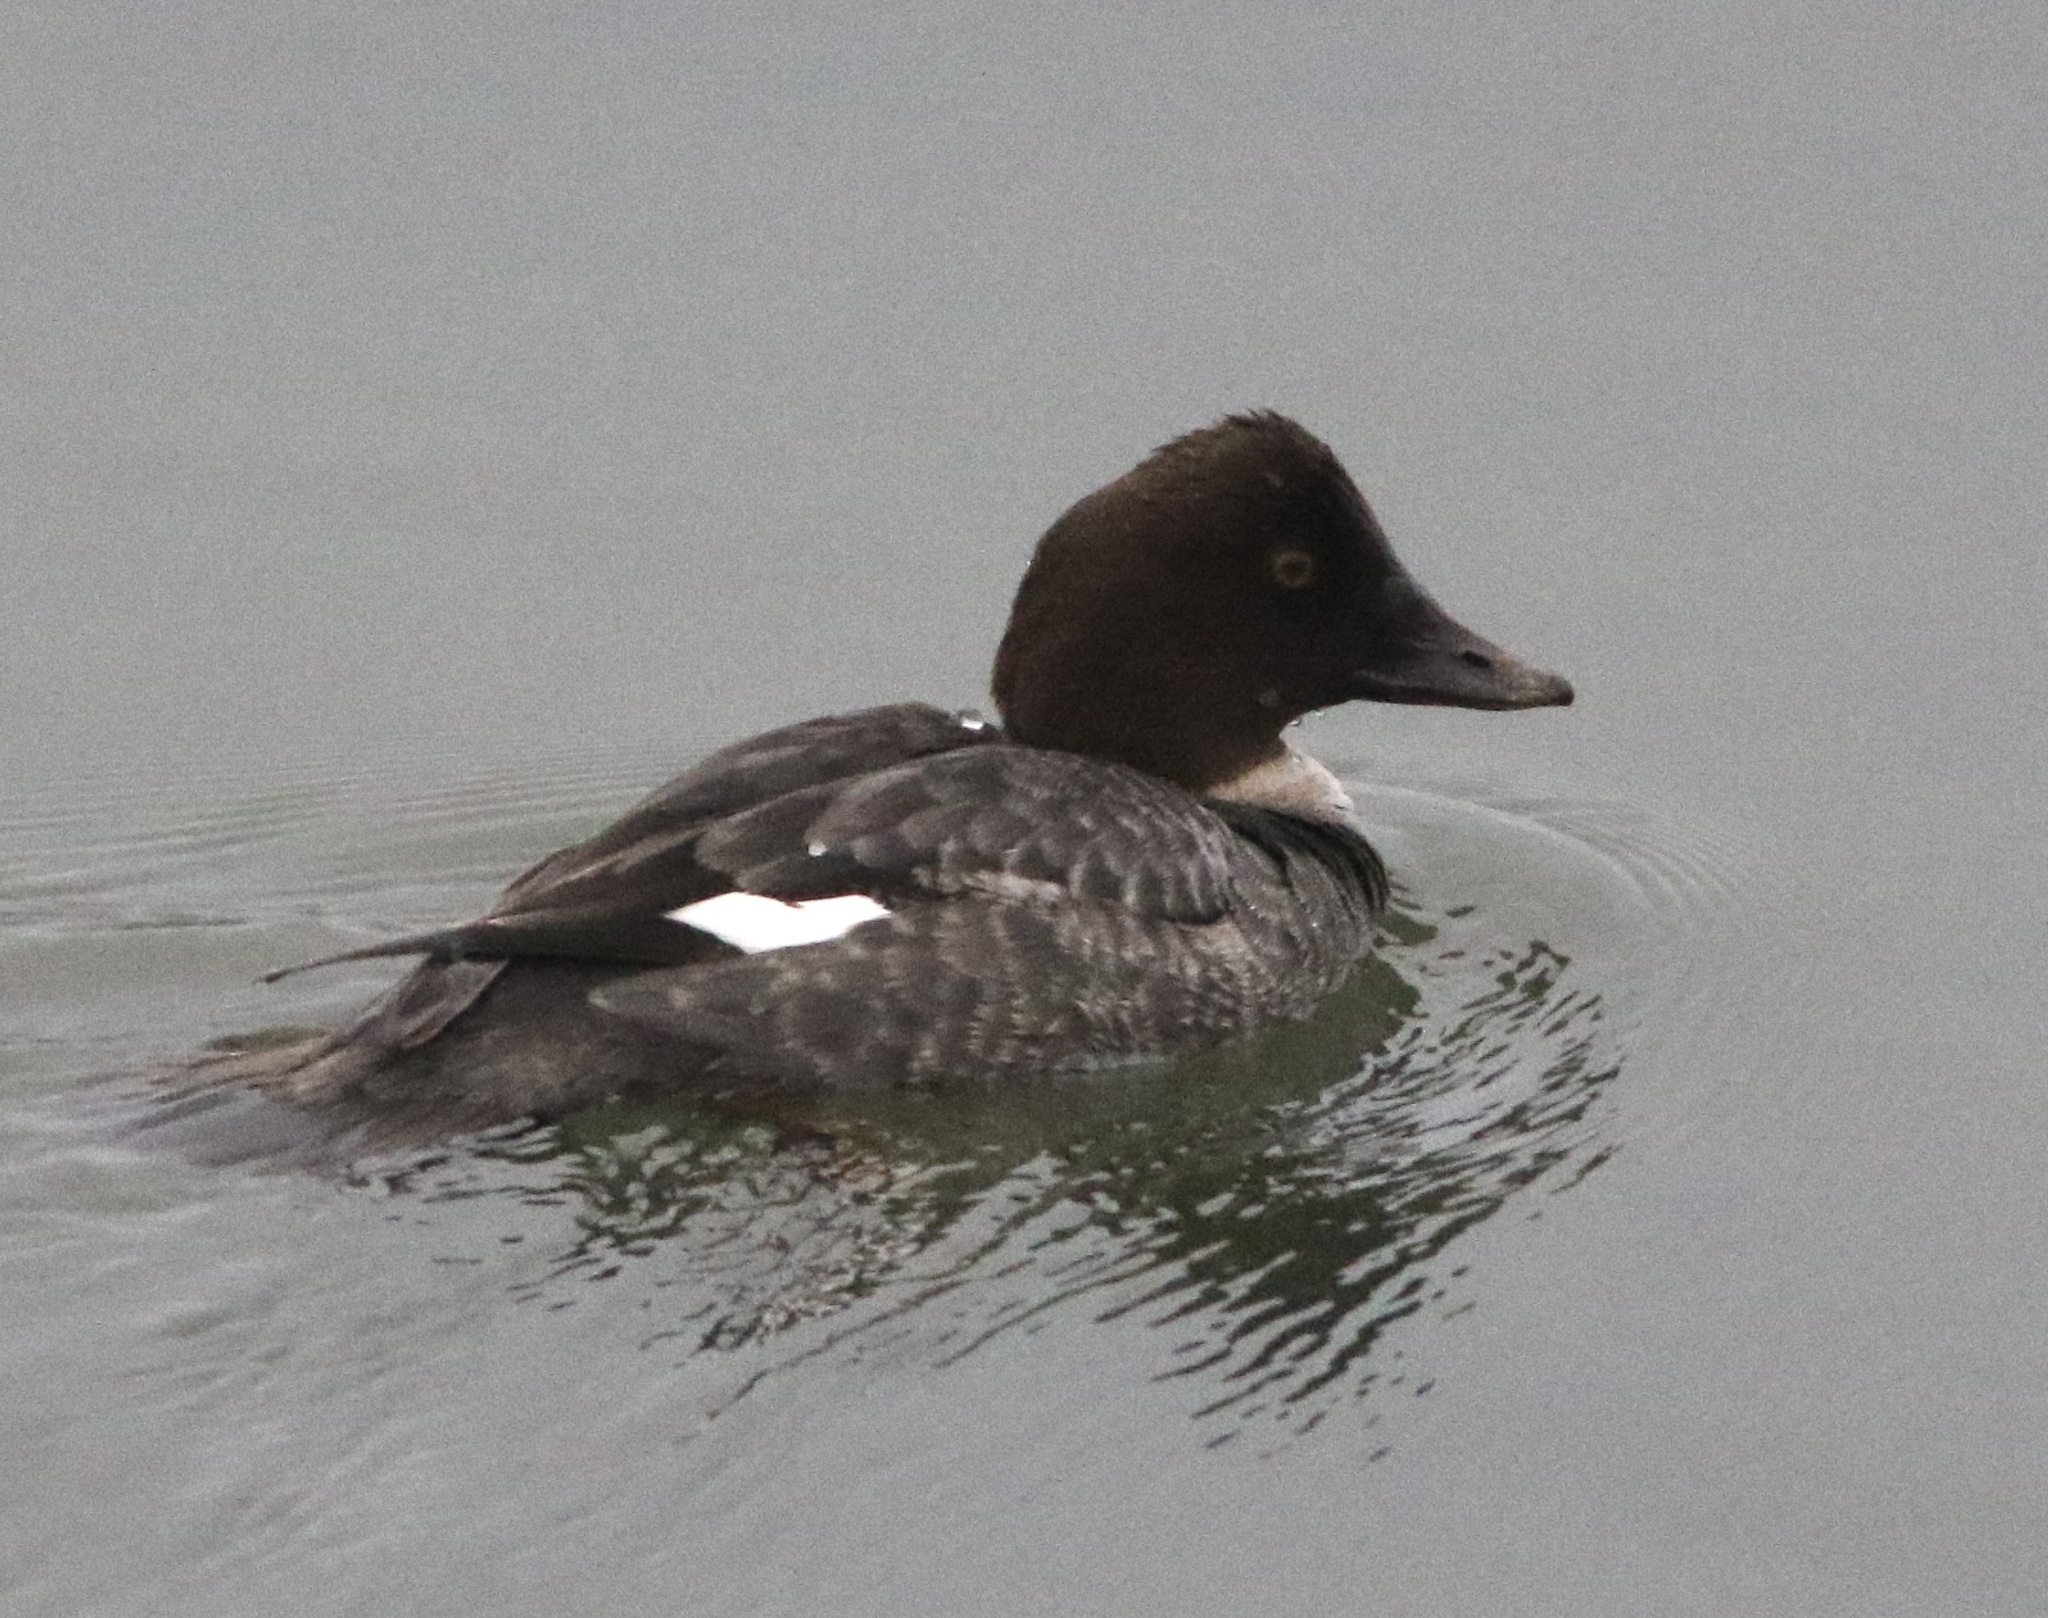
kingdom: Animalia
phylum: Chordata
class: Aves
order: Anseriformes
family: Anatidae
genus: Bucephala
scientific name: Bucephala clangula
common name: Common goldeneye
